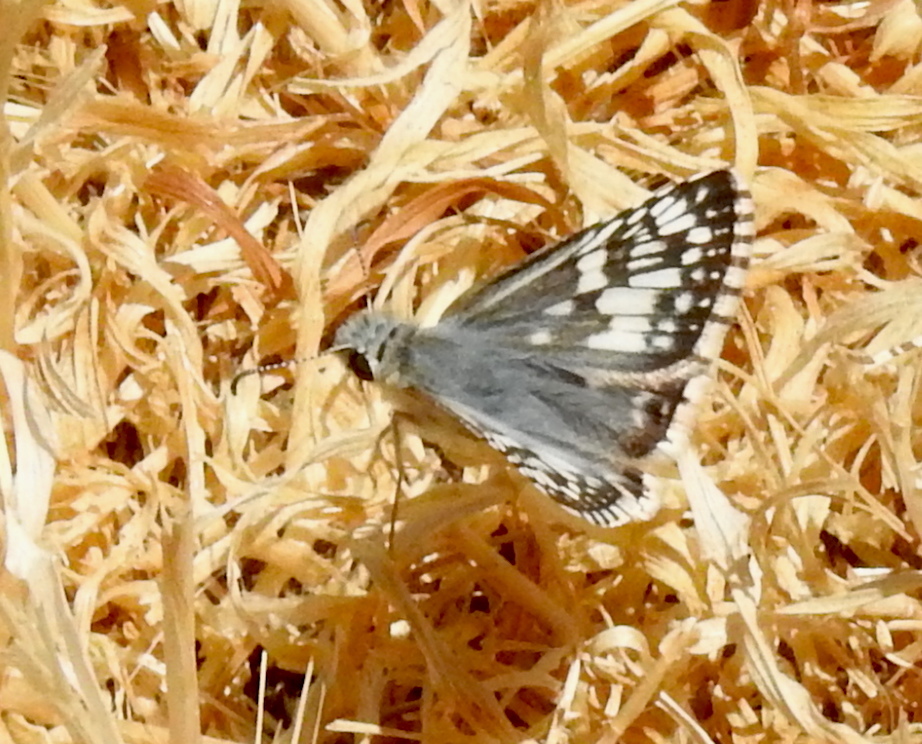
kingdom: Animalia
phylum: Arthropoda
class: Insecta
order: Lepidoptera
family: Hesperiidae
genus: Burnsius
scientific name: Burnsius communis
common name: Common checkered-skipper
